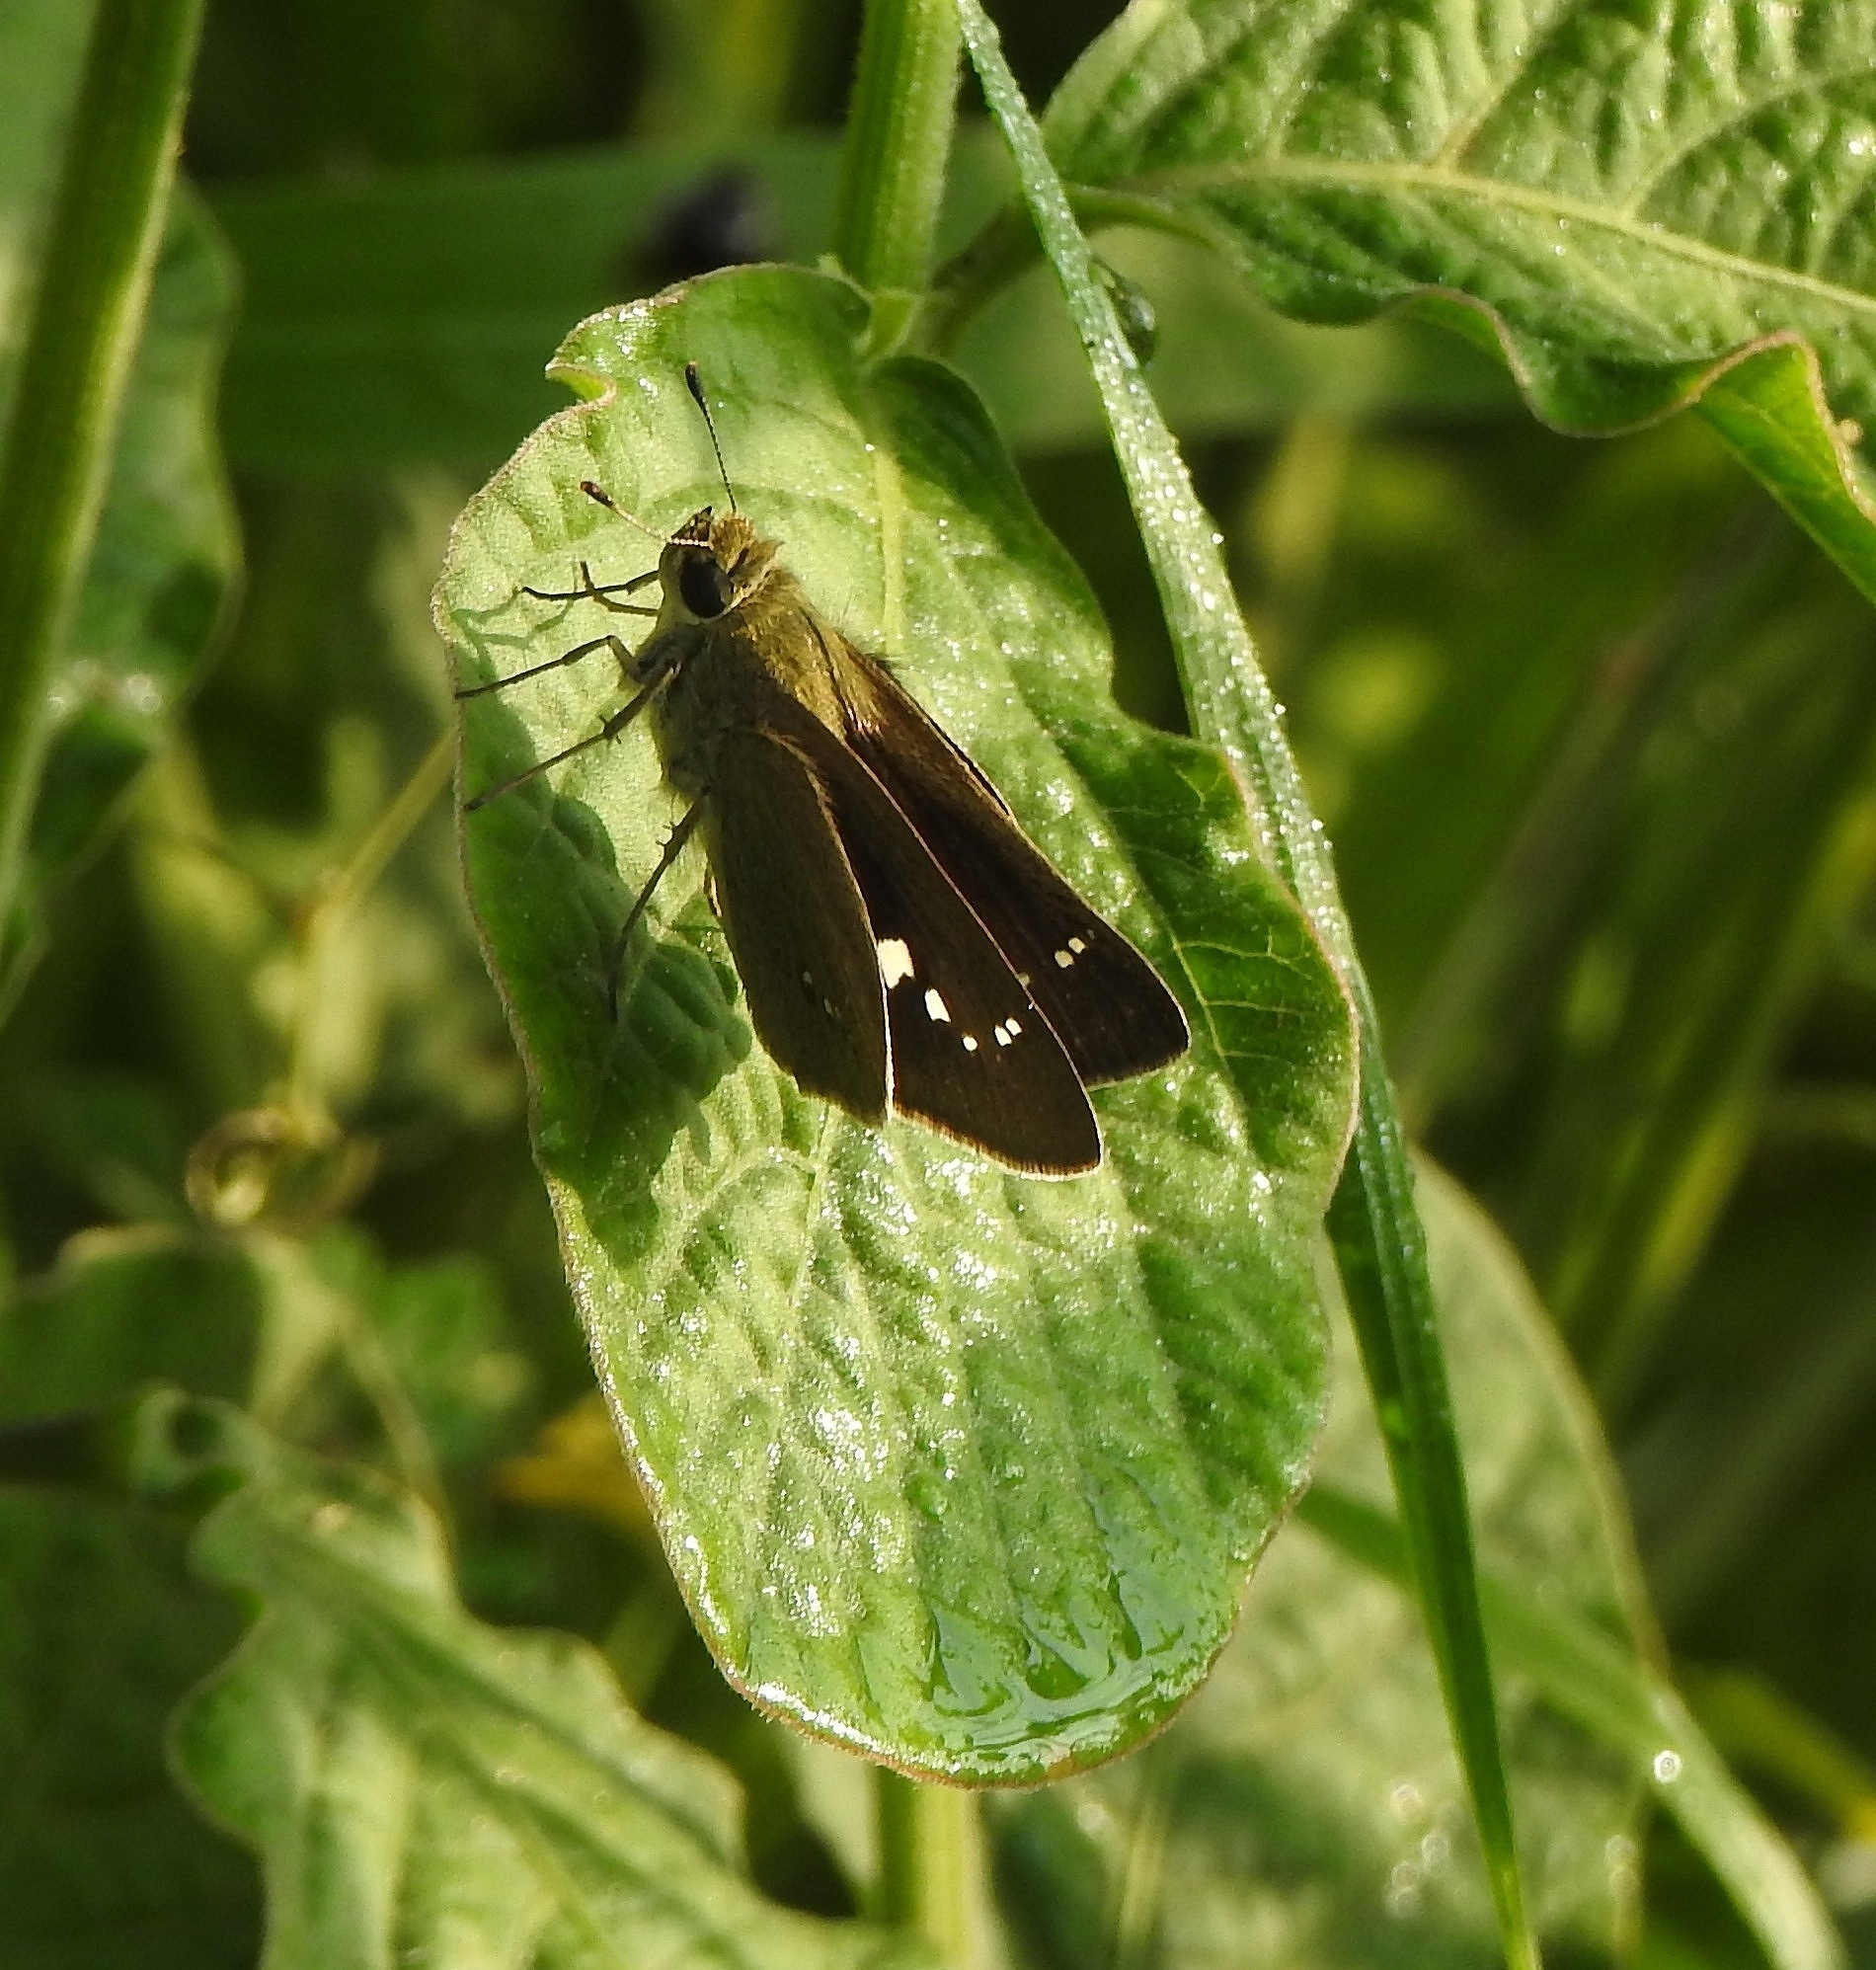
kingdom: Animalia
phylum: Arthropoda
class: Insecta
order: Lepidoptera
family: Hesperiidae
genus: Parnara
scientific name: Parnara naso
